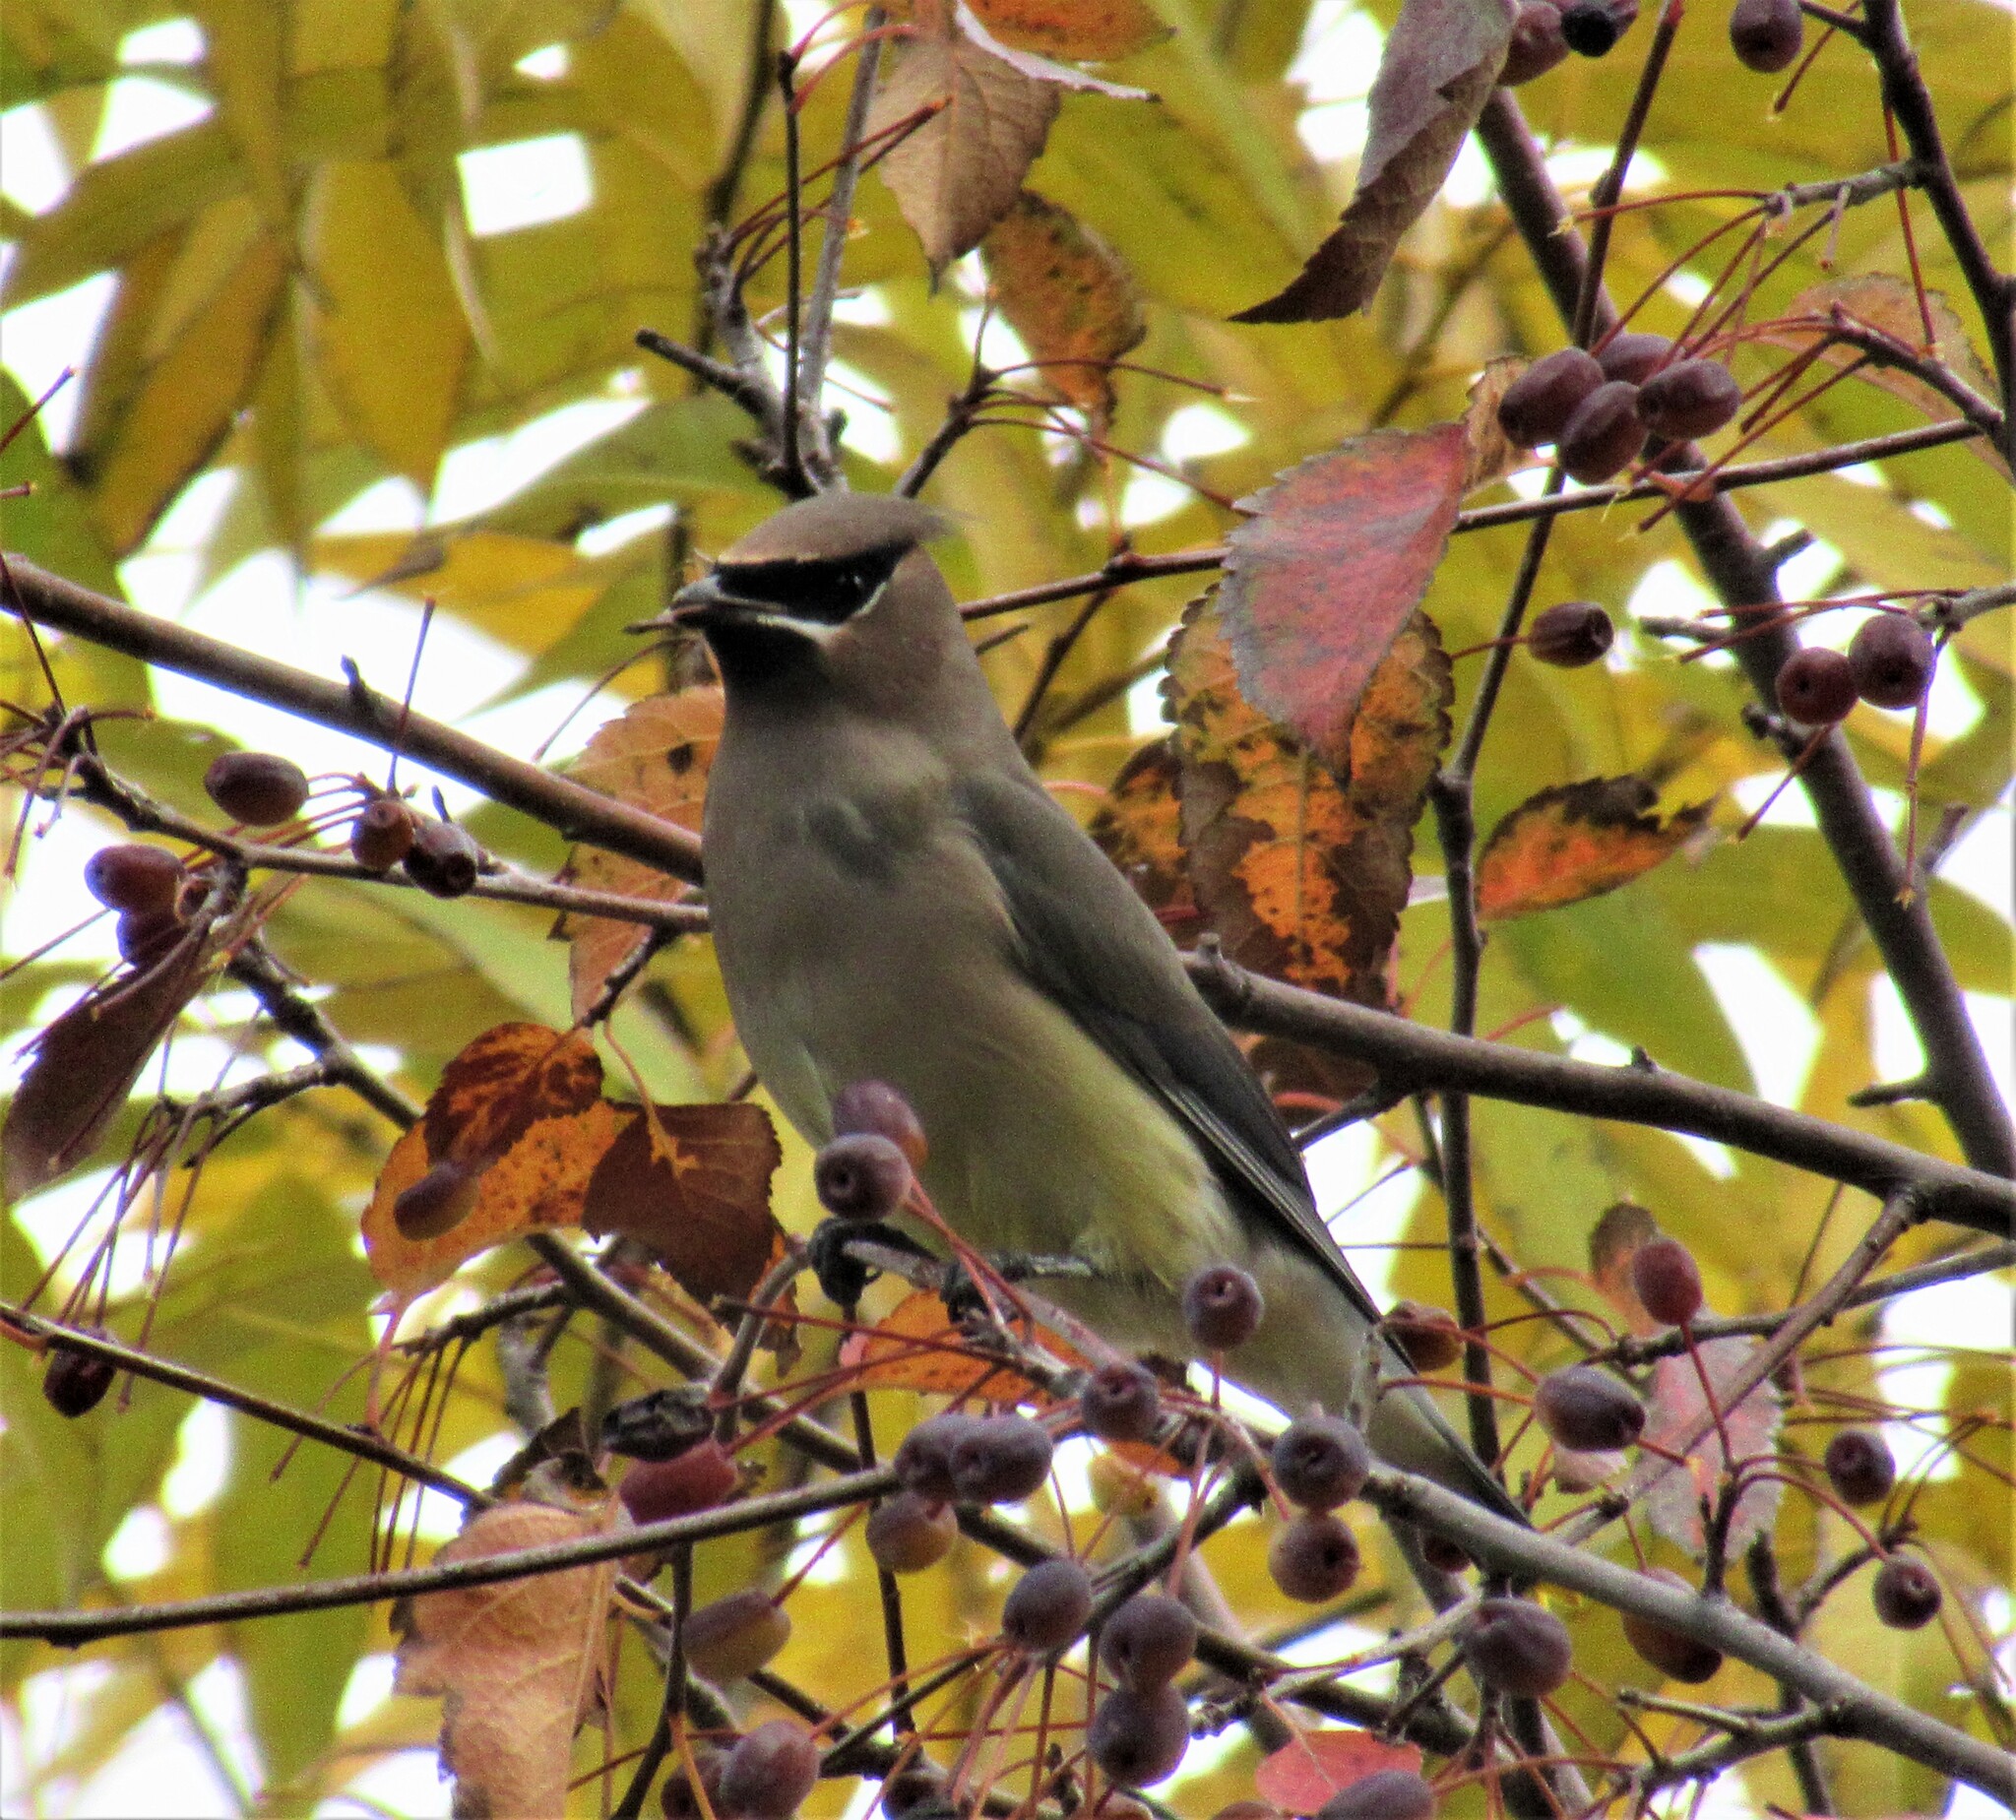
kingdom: Animalia
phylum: Chordata
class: Aves
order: Passeriformes
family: Bombycillidae
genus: Bombycilla
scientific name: Bombycilla cedrorum
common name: Cedar waxwing
